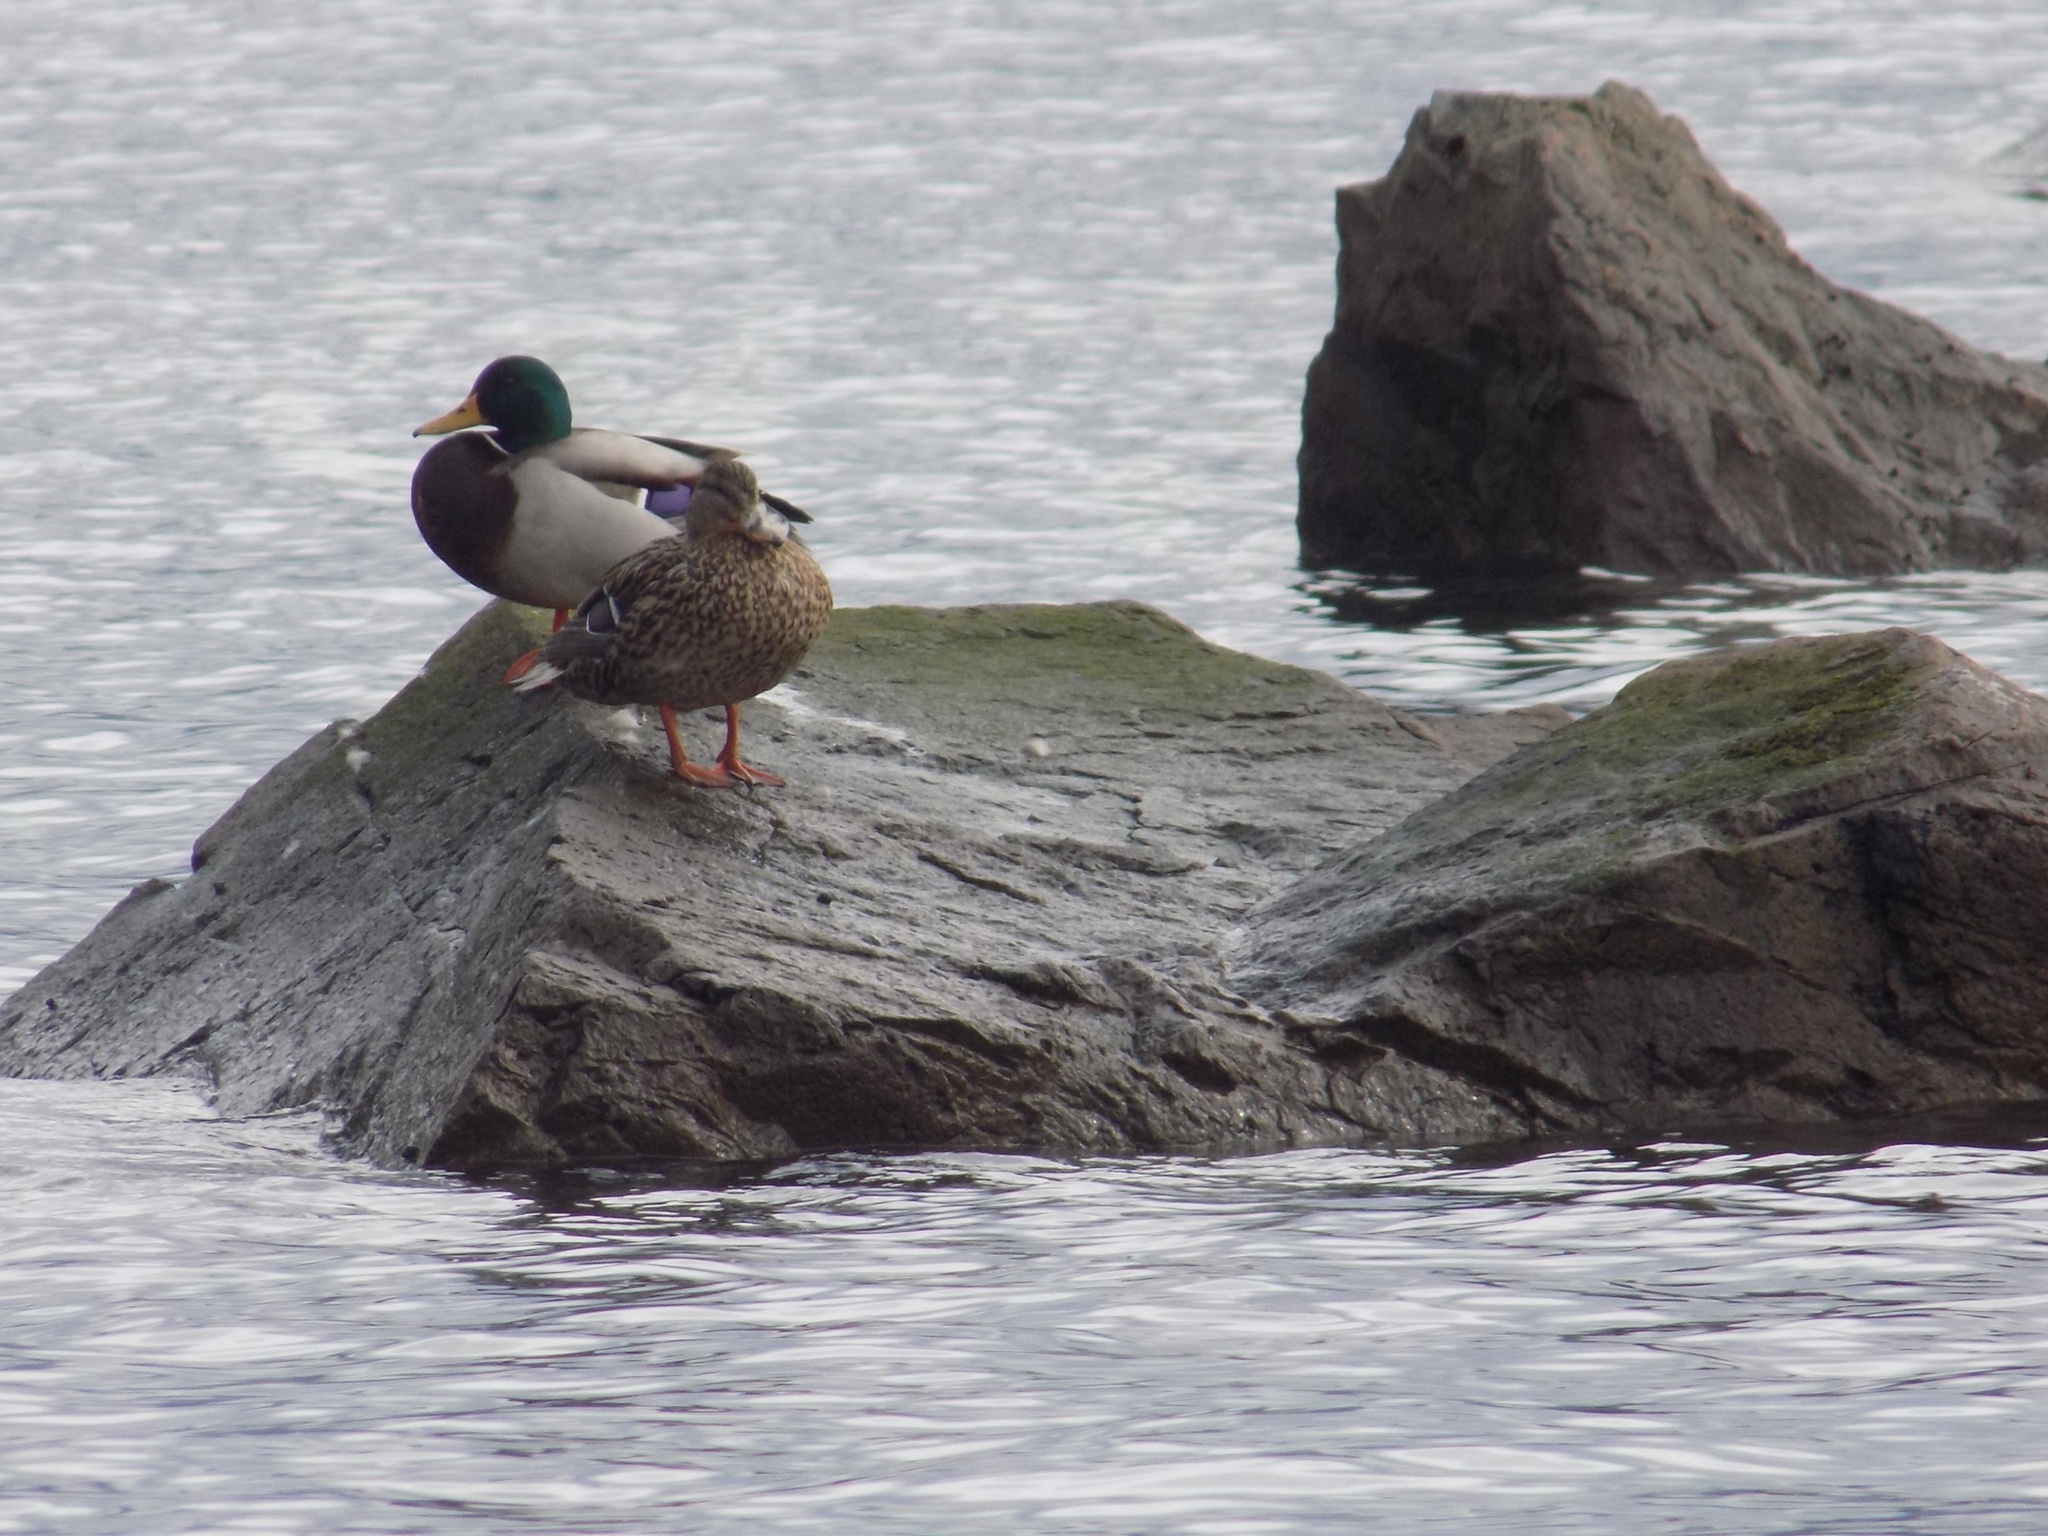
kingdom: Animalia
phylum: Chordata
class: Aves
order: Anseriformes
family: Anatidae
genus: Anas
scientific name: Anas platyrhynchos
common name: Mallard
